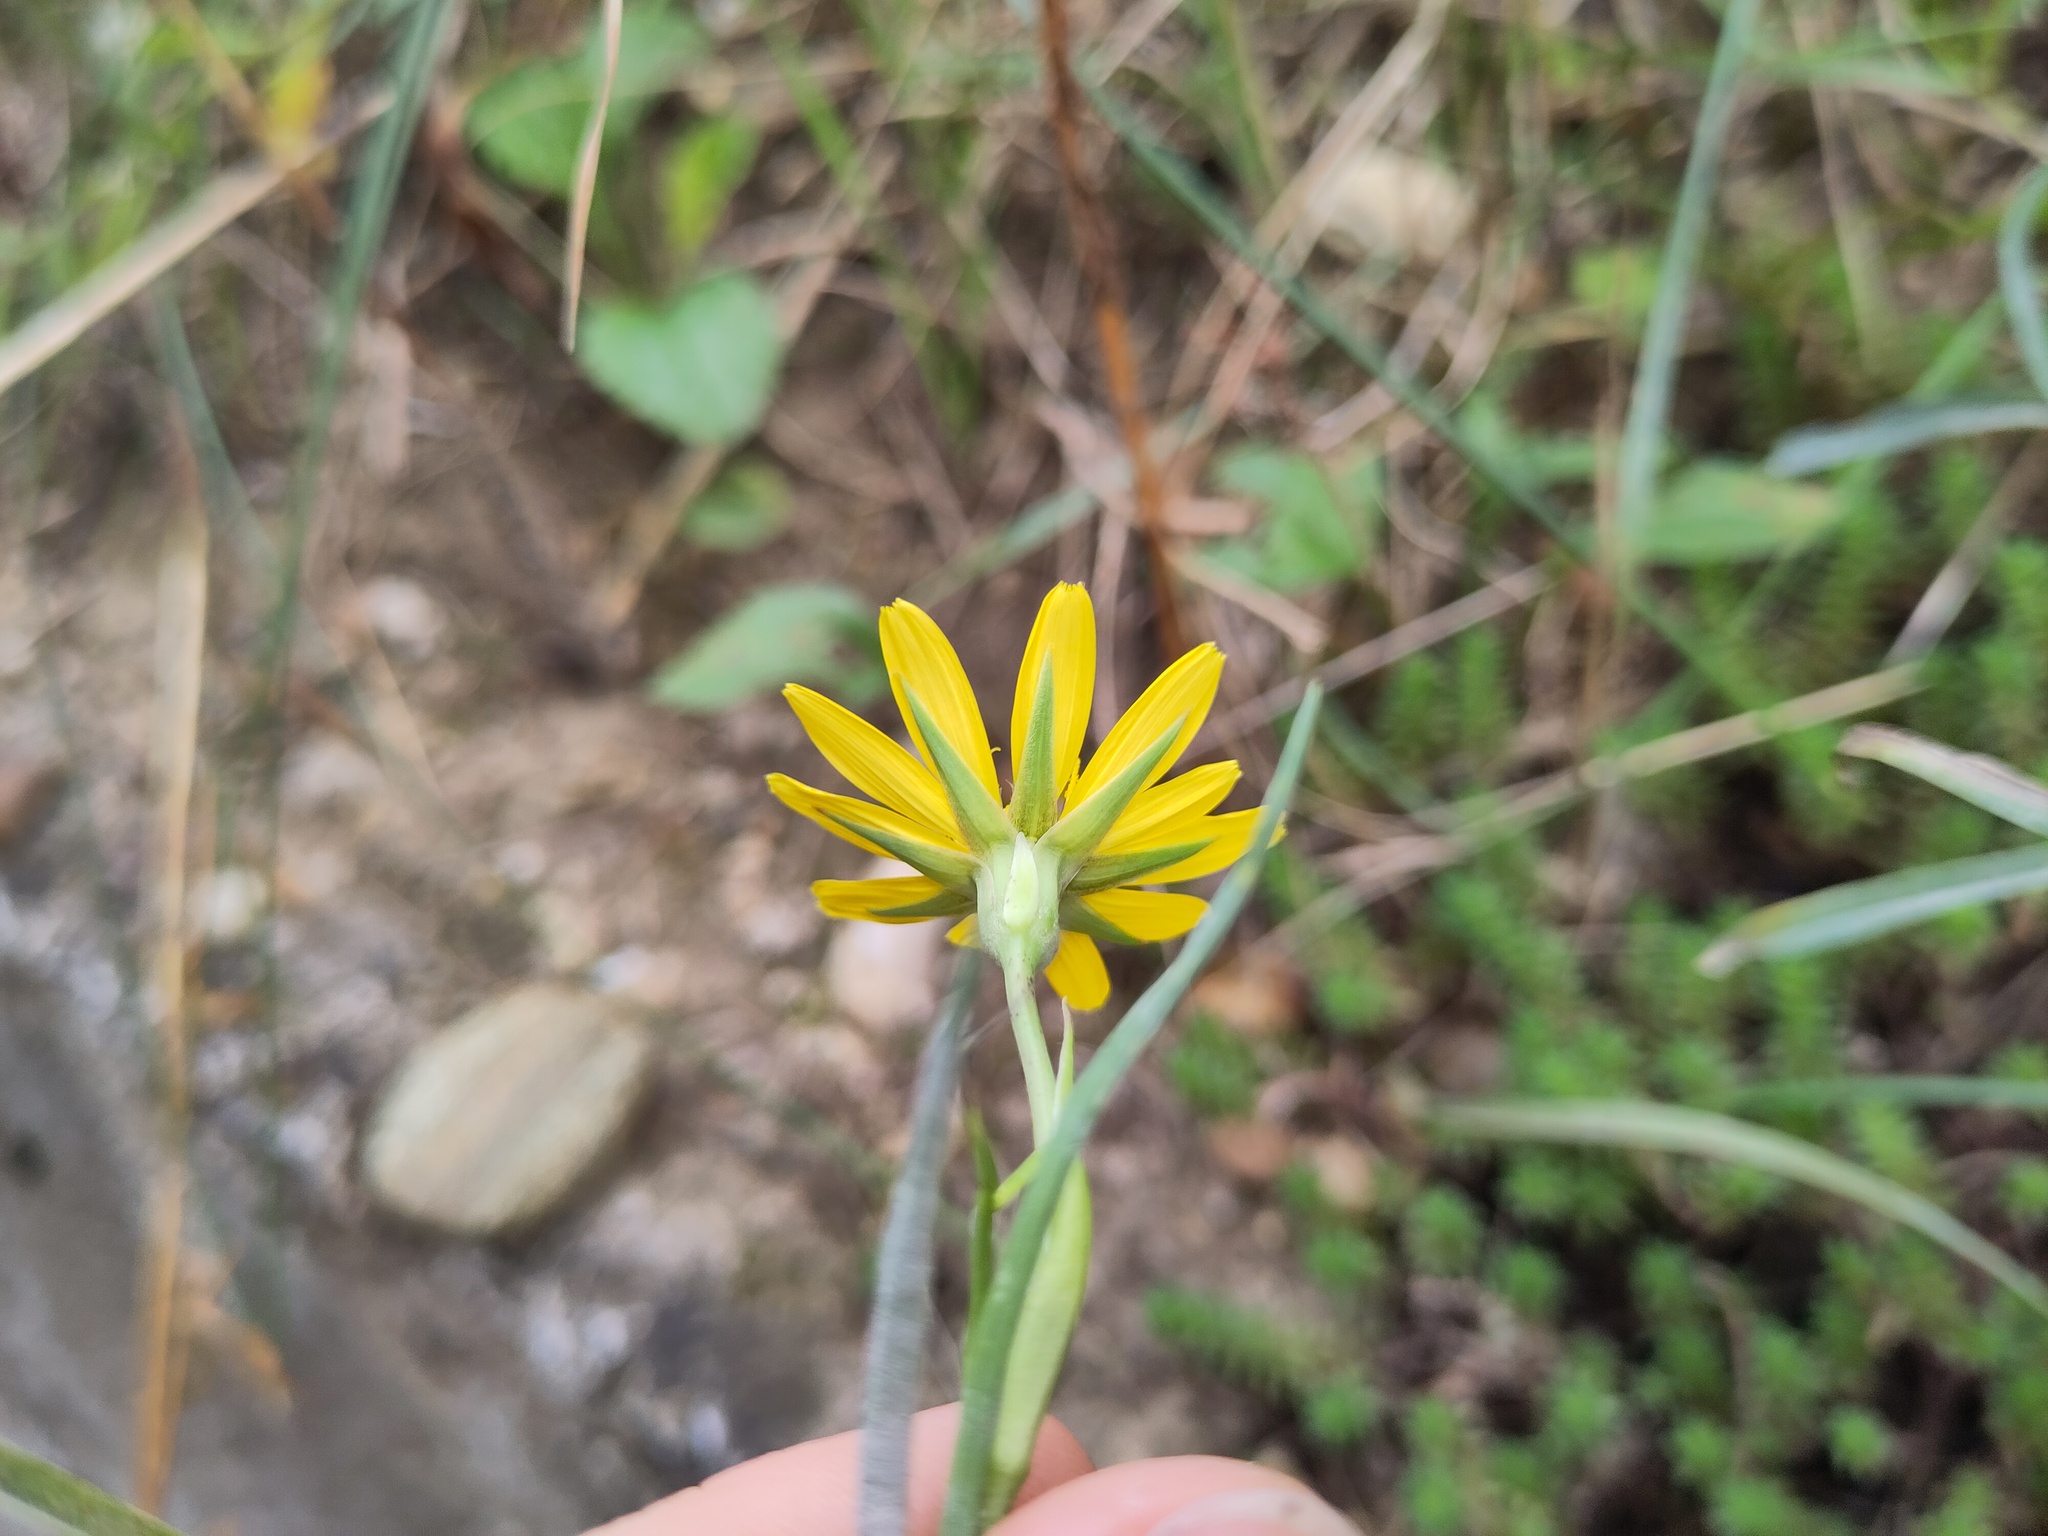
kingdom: Plantae
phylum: Tracheophyta
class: Magnoliopsida
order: Asterales
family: Asteraceae
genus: Tragopogon
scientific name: Tragopogon orientalis
